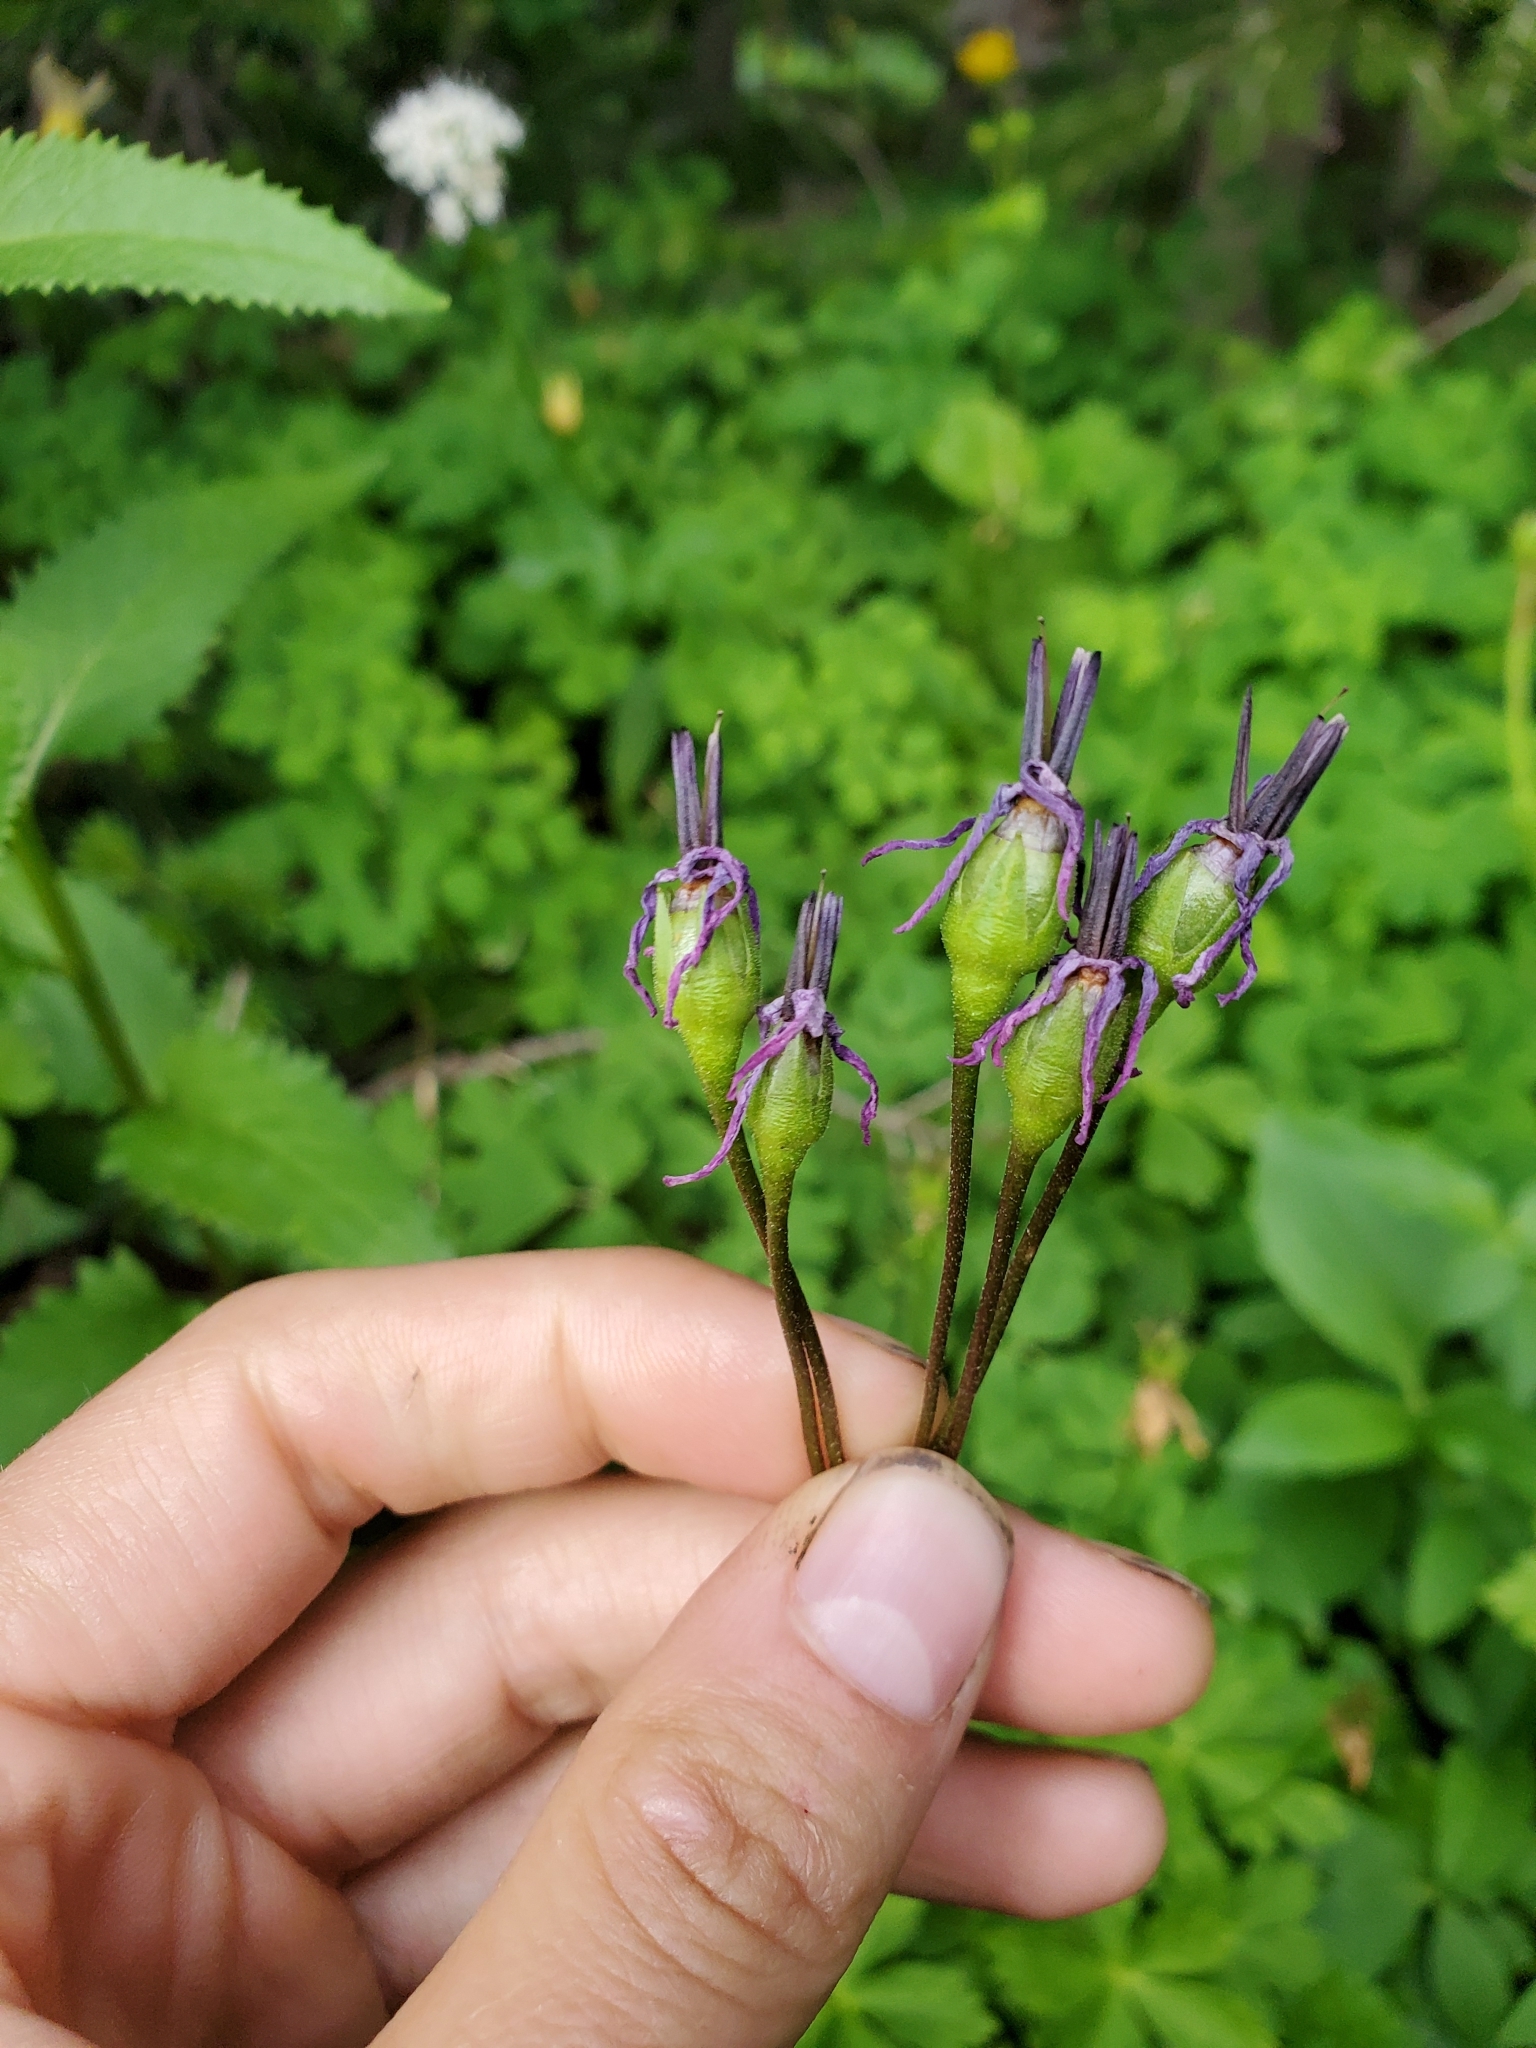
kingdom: Plantae
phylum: Tracheophyta
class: Magnoliopsida
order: Ericales
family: Primulaceae
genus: Dodecatheon
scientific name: Dodecatheon jeffreyanum
